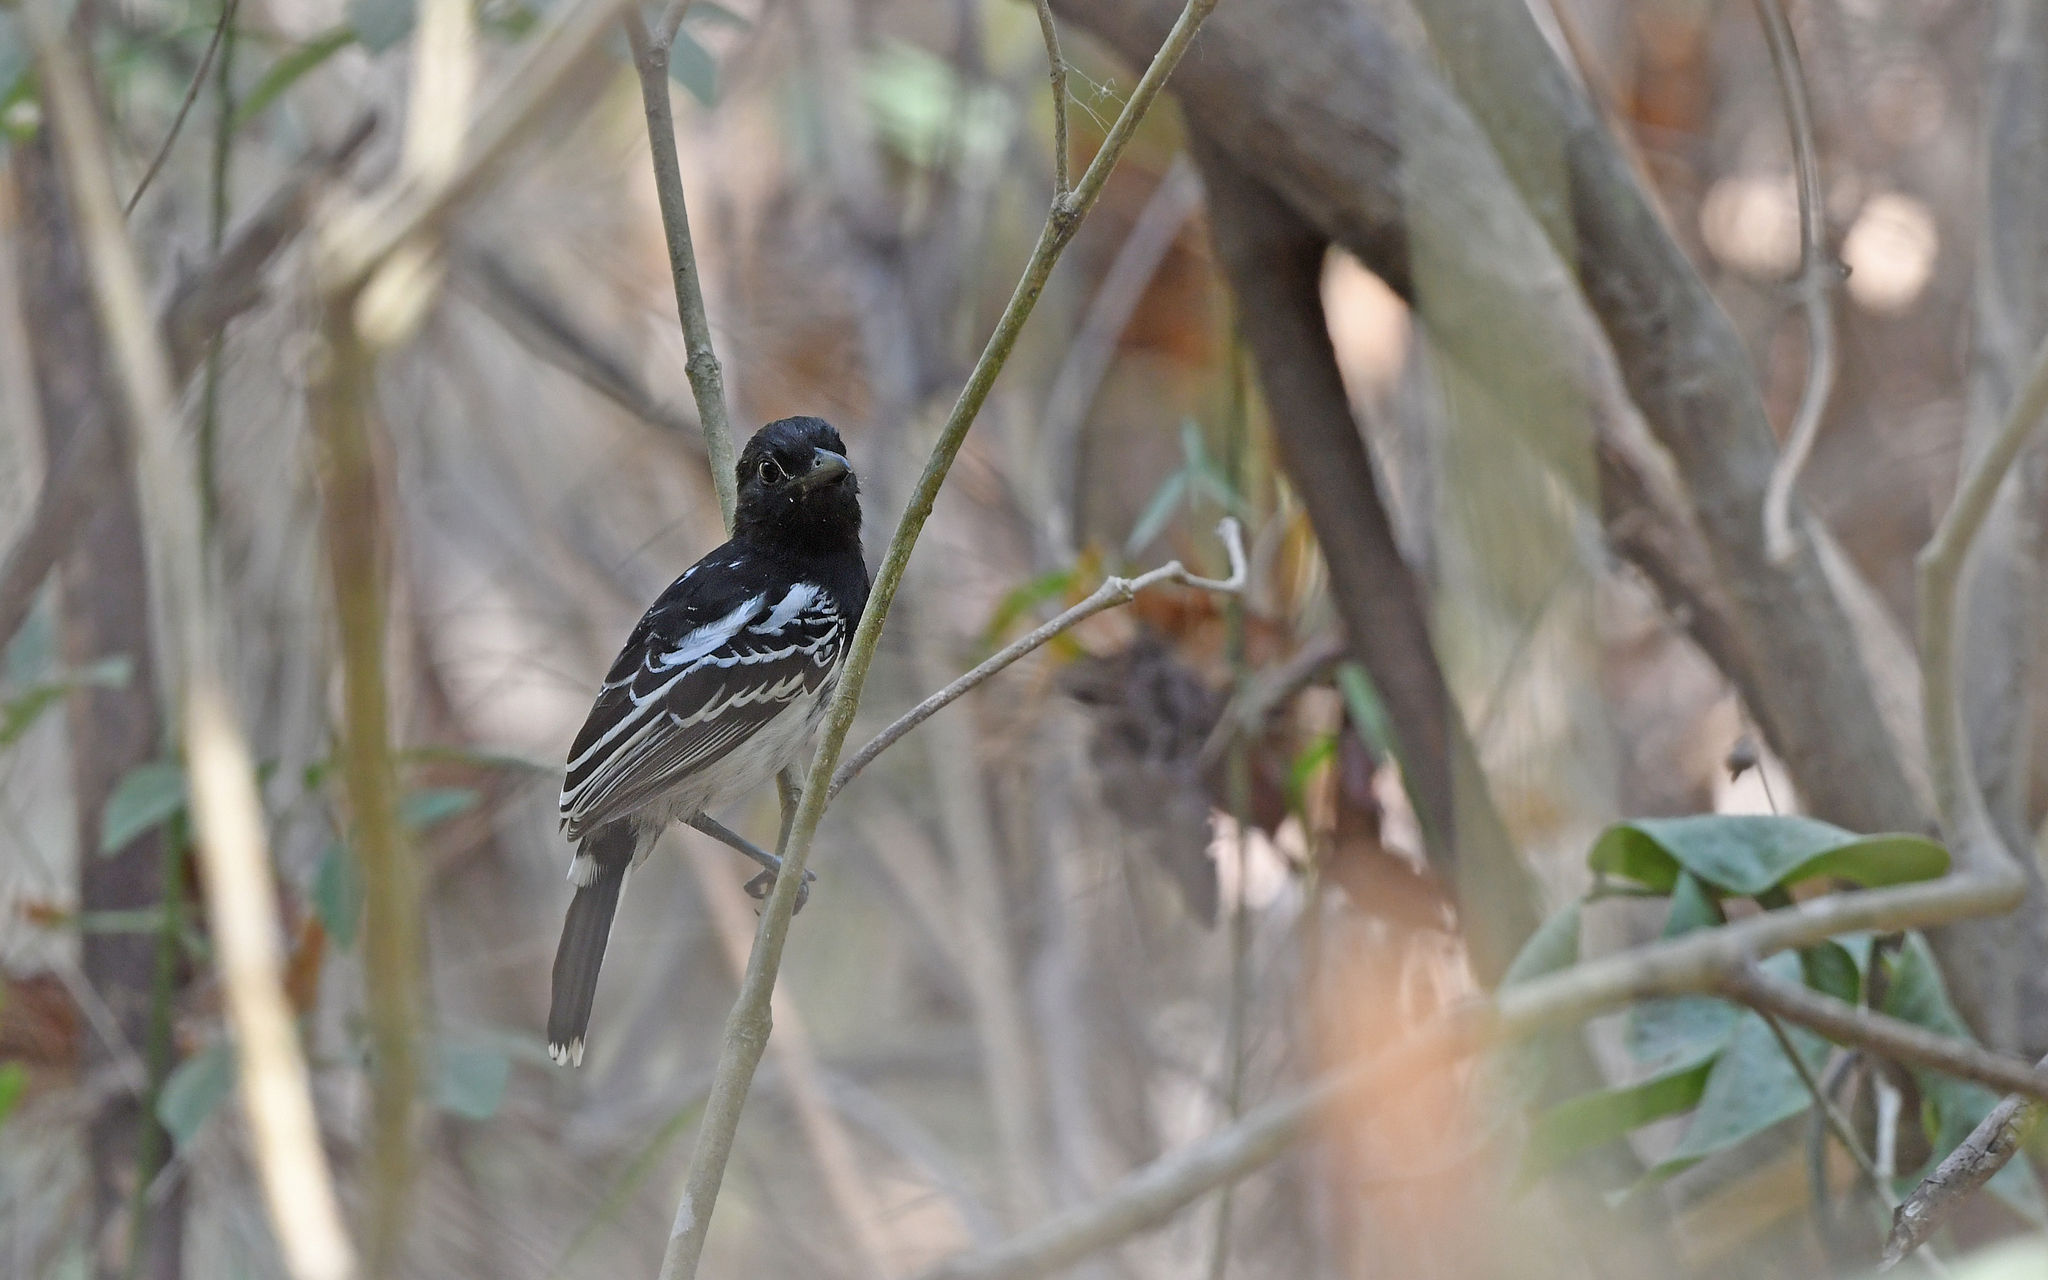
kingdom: Animalia
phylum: Chordata
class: Aves
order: Passeriformes
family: Thamnophilidae
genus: Thamnophilus
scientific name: Thamnophilus melanonotus
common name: Black-backed antshrike
